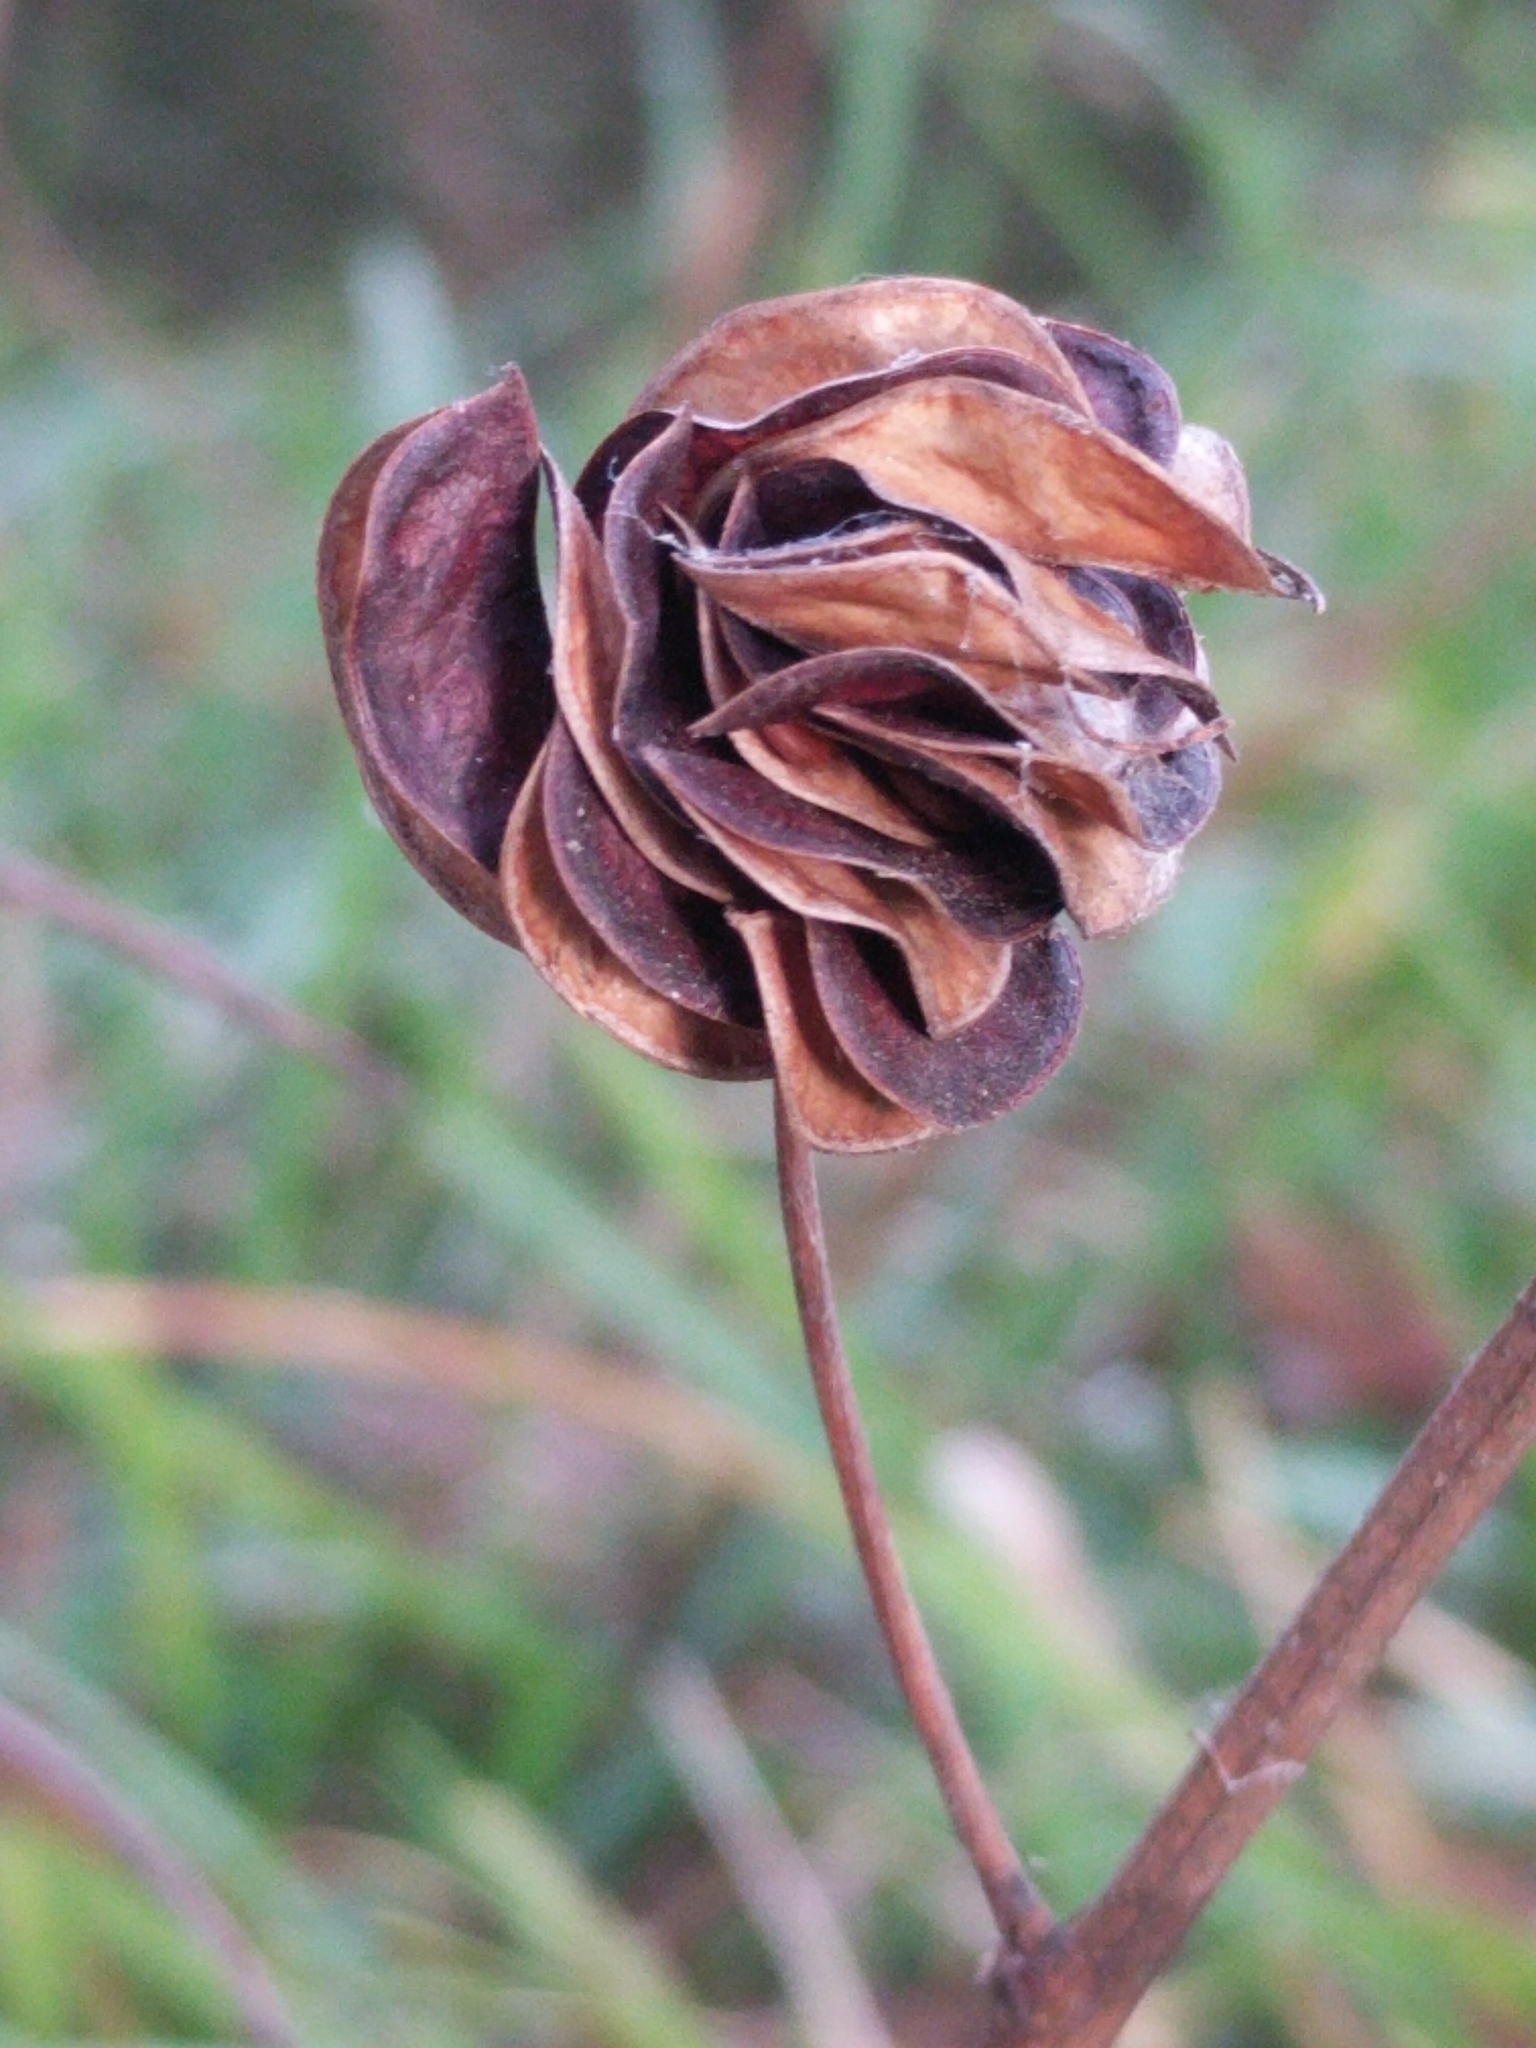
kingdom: Plantae
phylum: Tracheophyta
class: Magnoliopsida
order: Fabales
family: Fabaceae
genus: Desmanthus
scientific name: Desmanthus illinoensis
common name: Illinois bundle-flower
